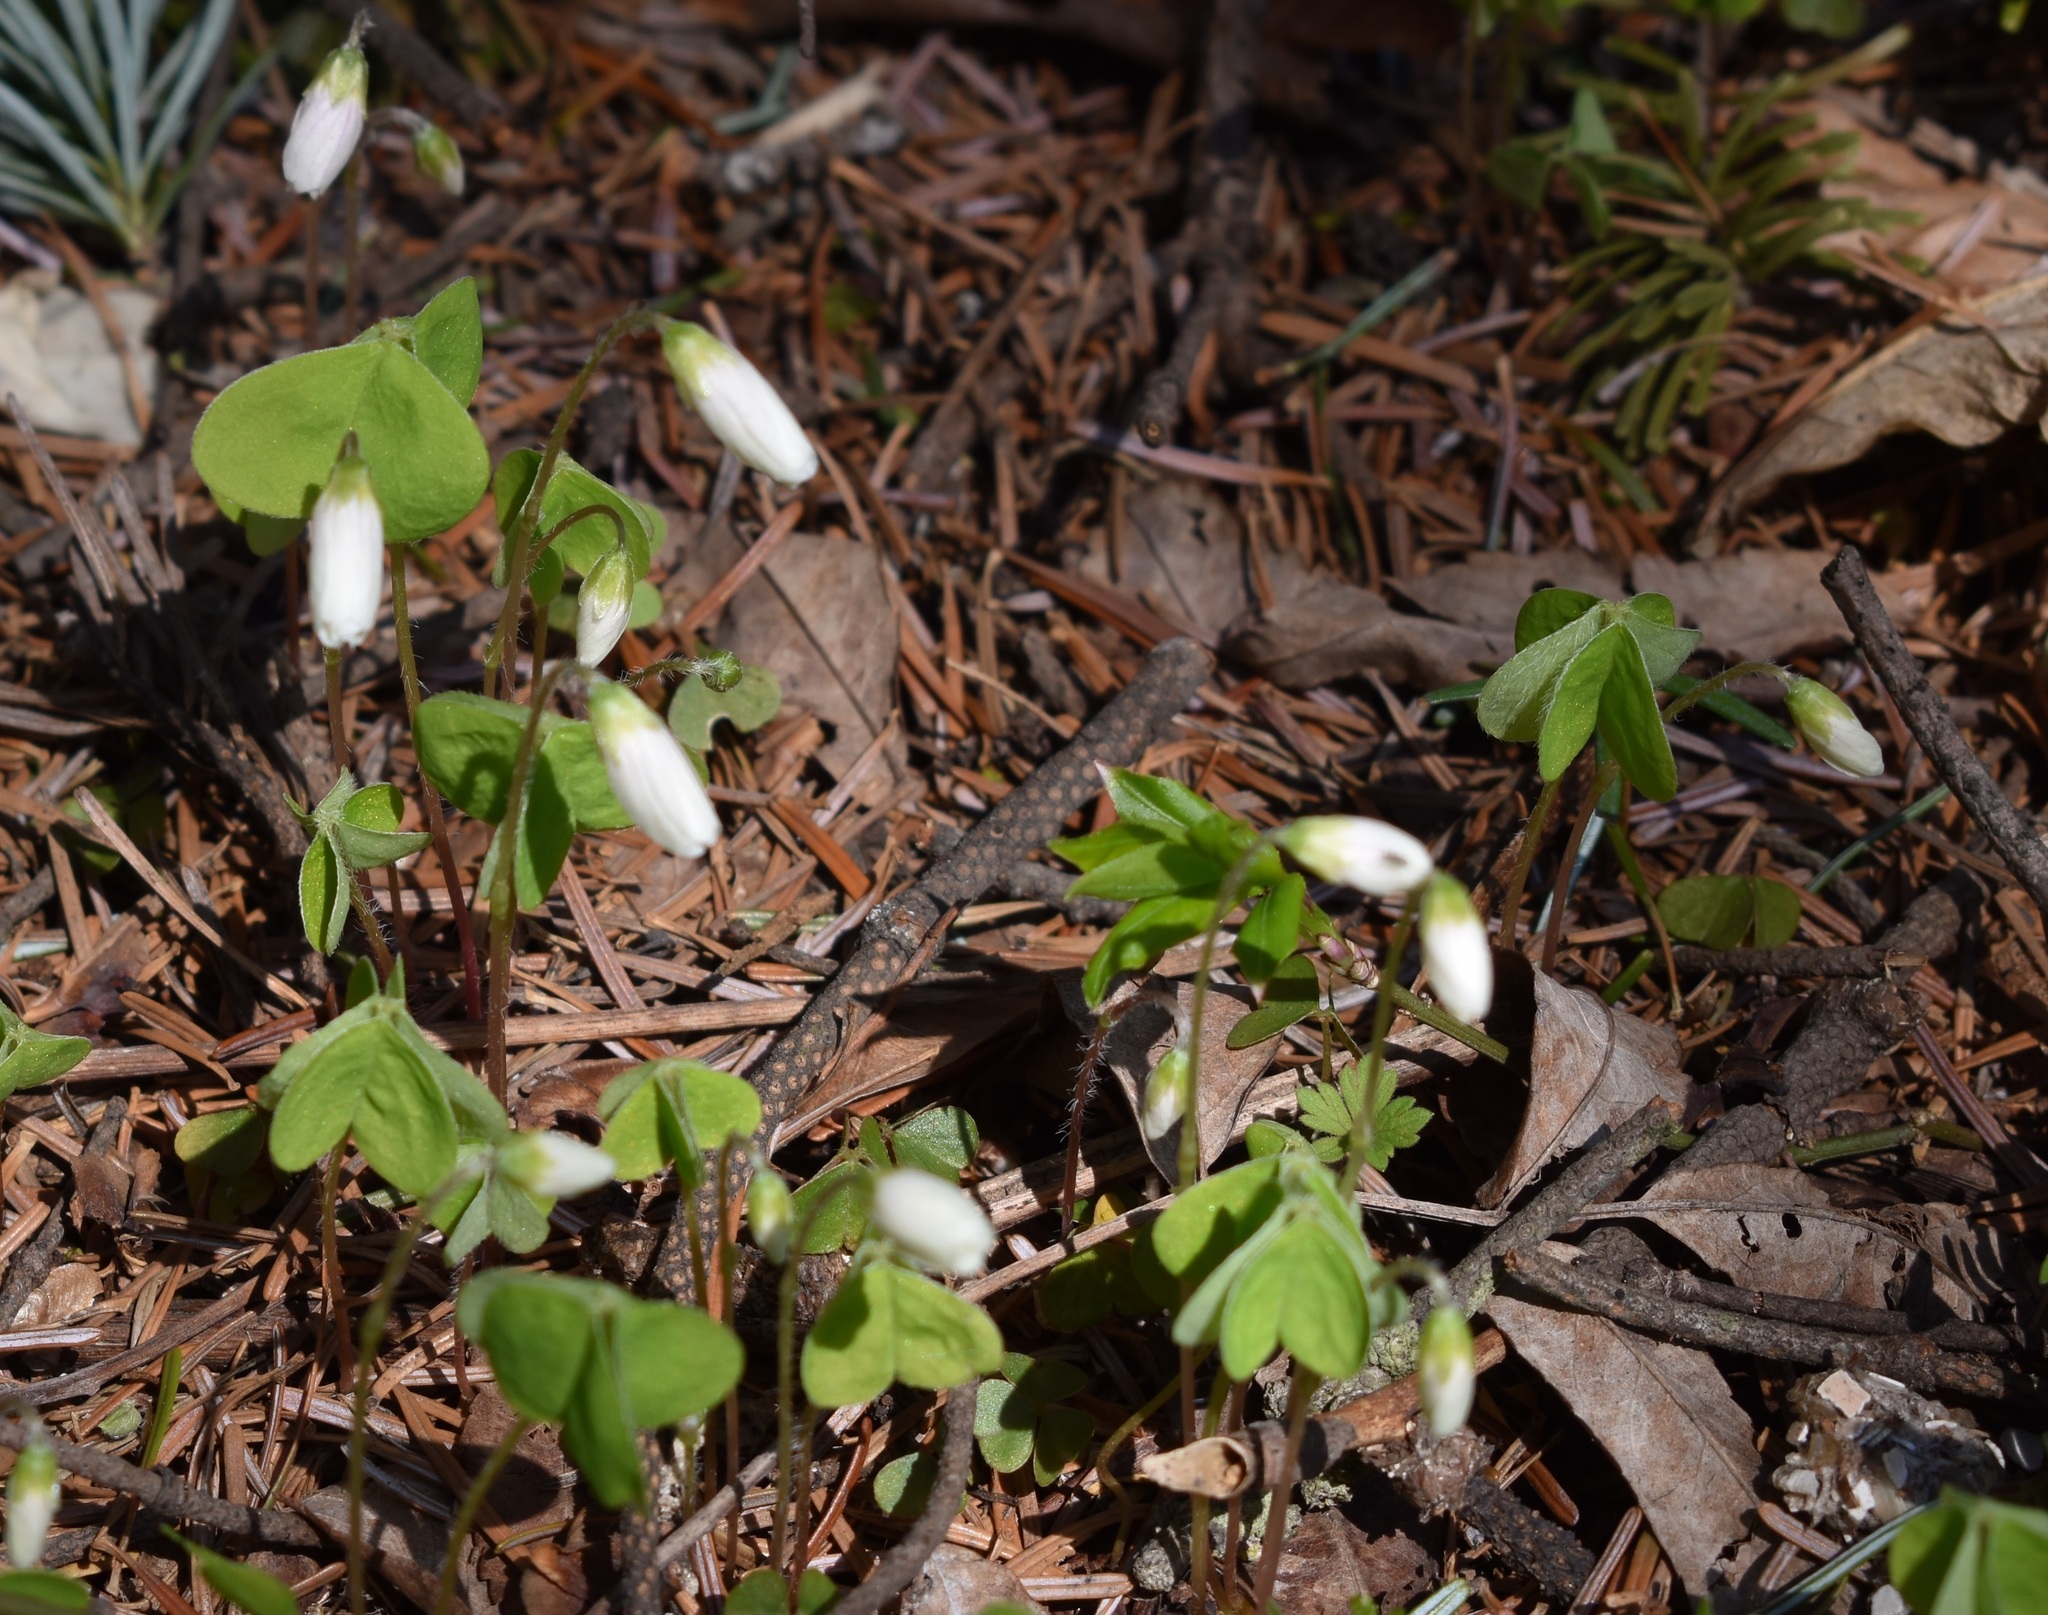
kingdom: Plantae
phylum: Tracheophyta
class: Magnoliopsida
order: Oxalidales
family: Oxalidaceae
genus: Oxalis
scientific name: Oxalis acetosella
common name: Wood-sorrel
